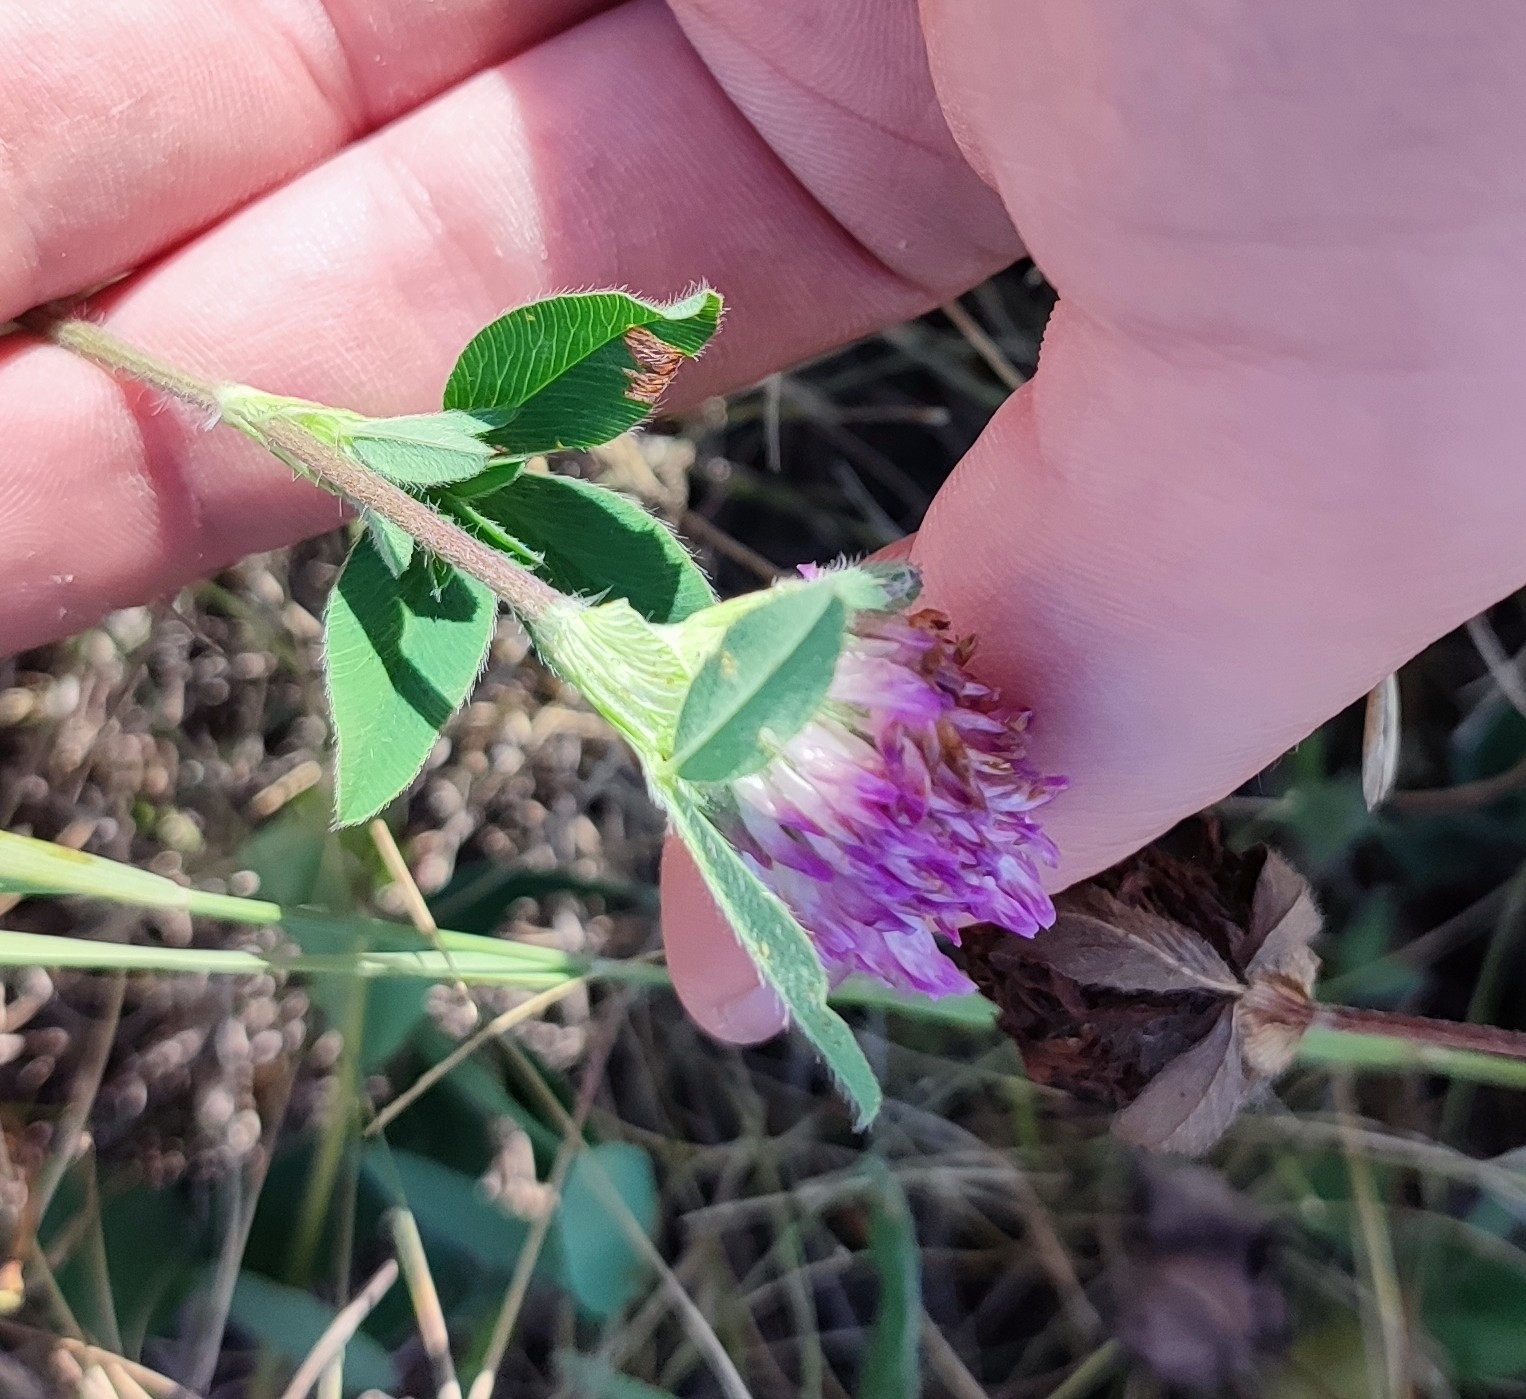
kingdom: Plantae
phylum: Tracheophyta
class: Magnoliopsida
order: Fabales
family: Fabaceae
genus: Trifolium
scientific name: Trifolium pratense
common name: Red clover
